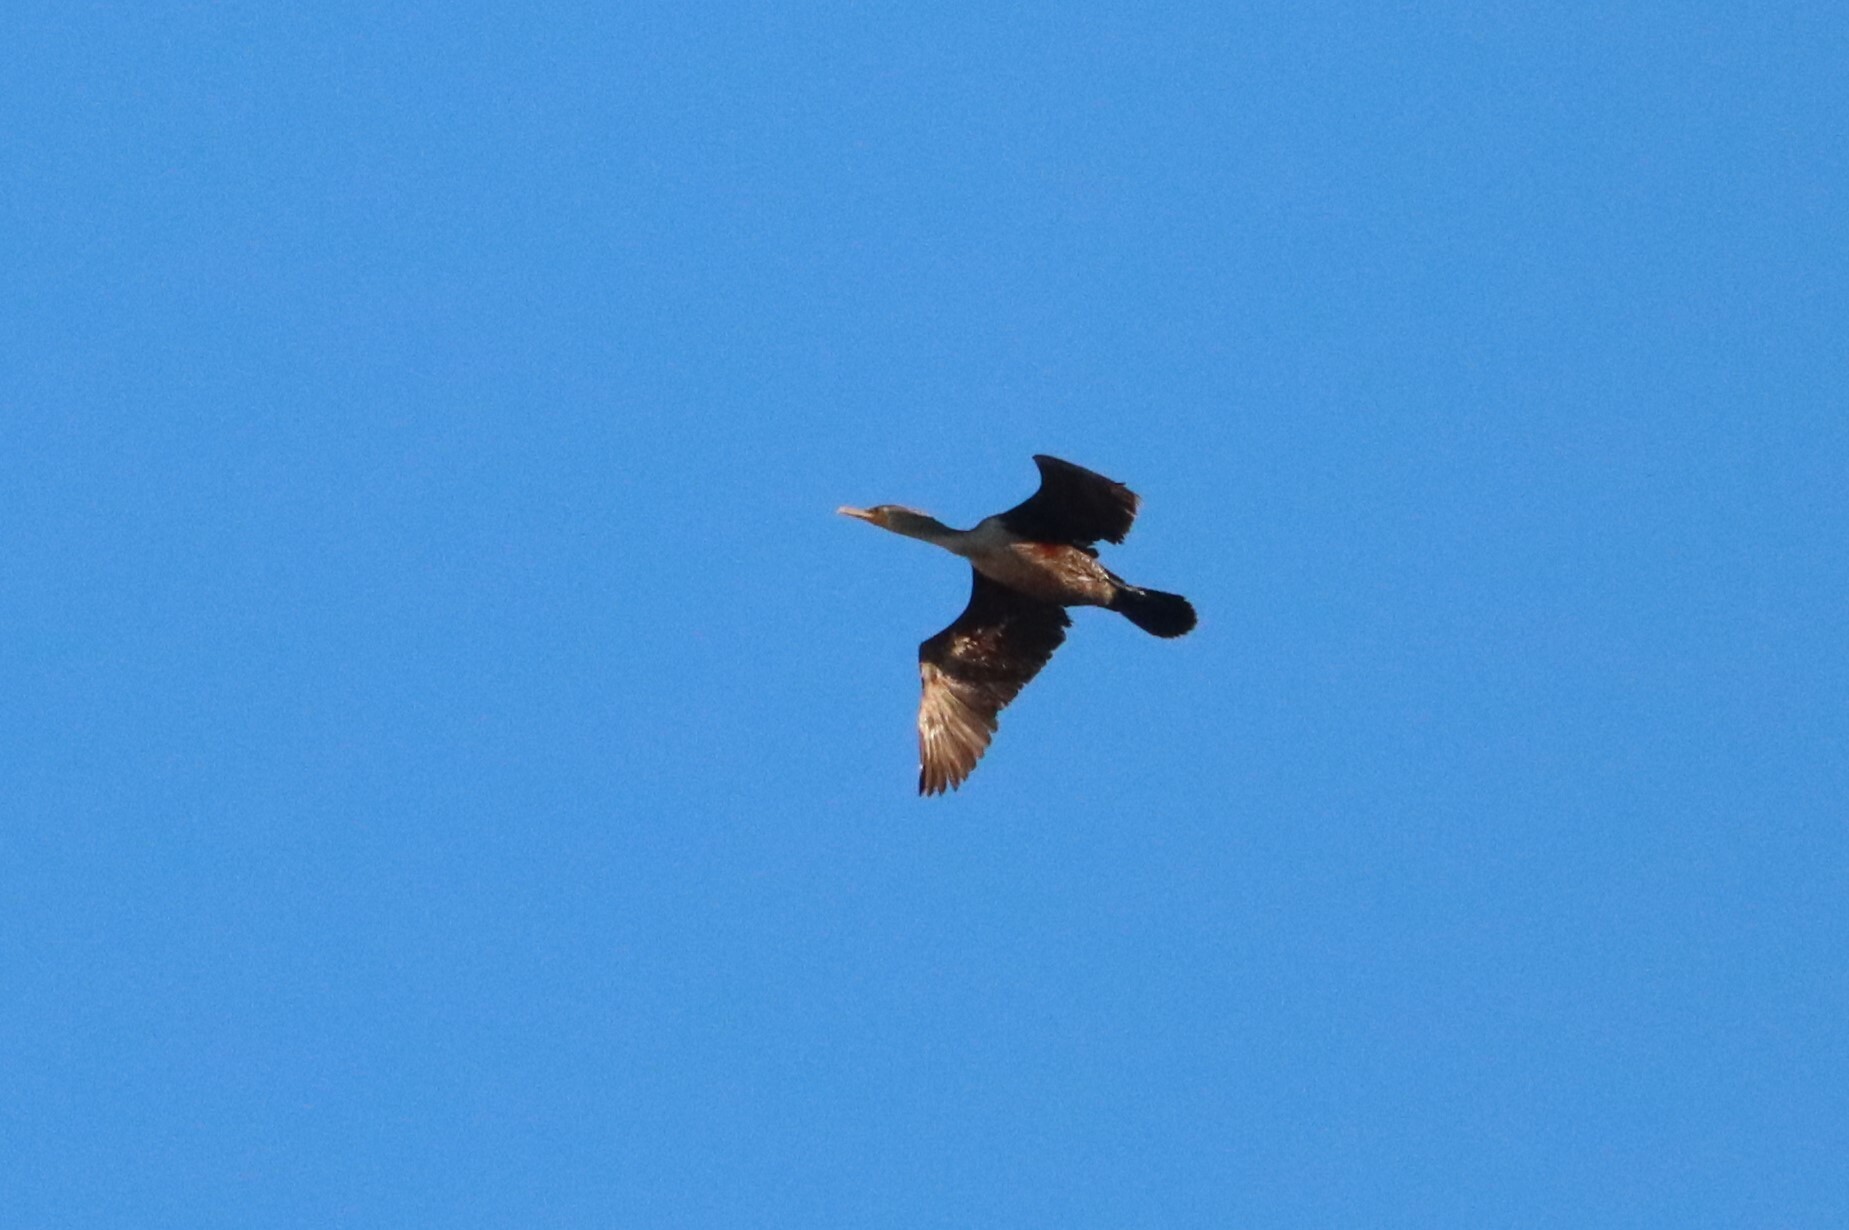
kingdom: Animalia
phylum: Chordata
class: Aves
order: Suliformes
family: Phalacrocoracidae
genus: Phalacrocorax
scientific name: Phalacrocorax auritus
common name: Double-crested cormorant
